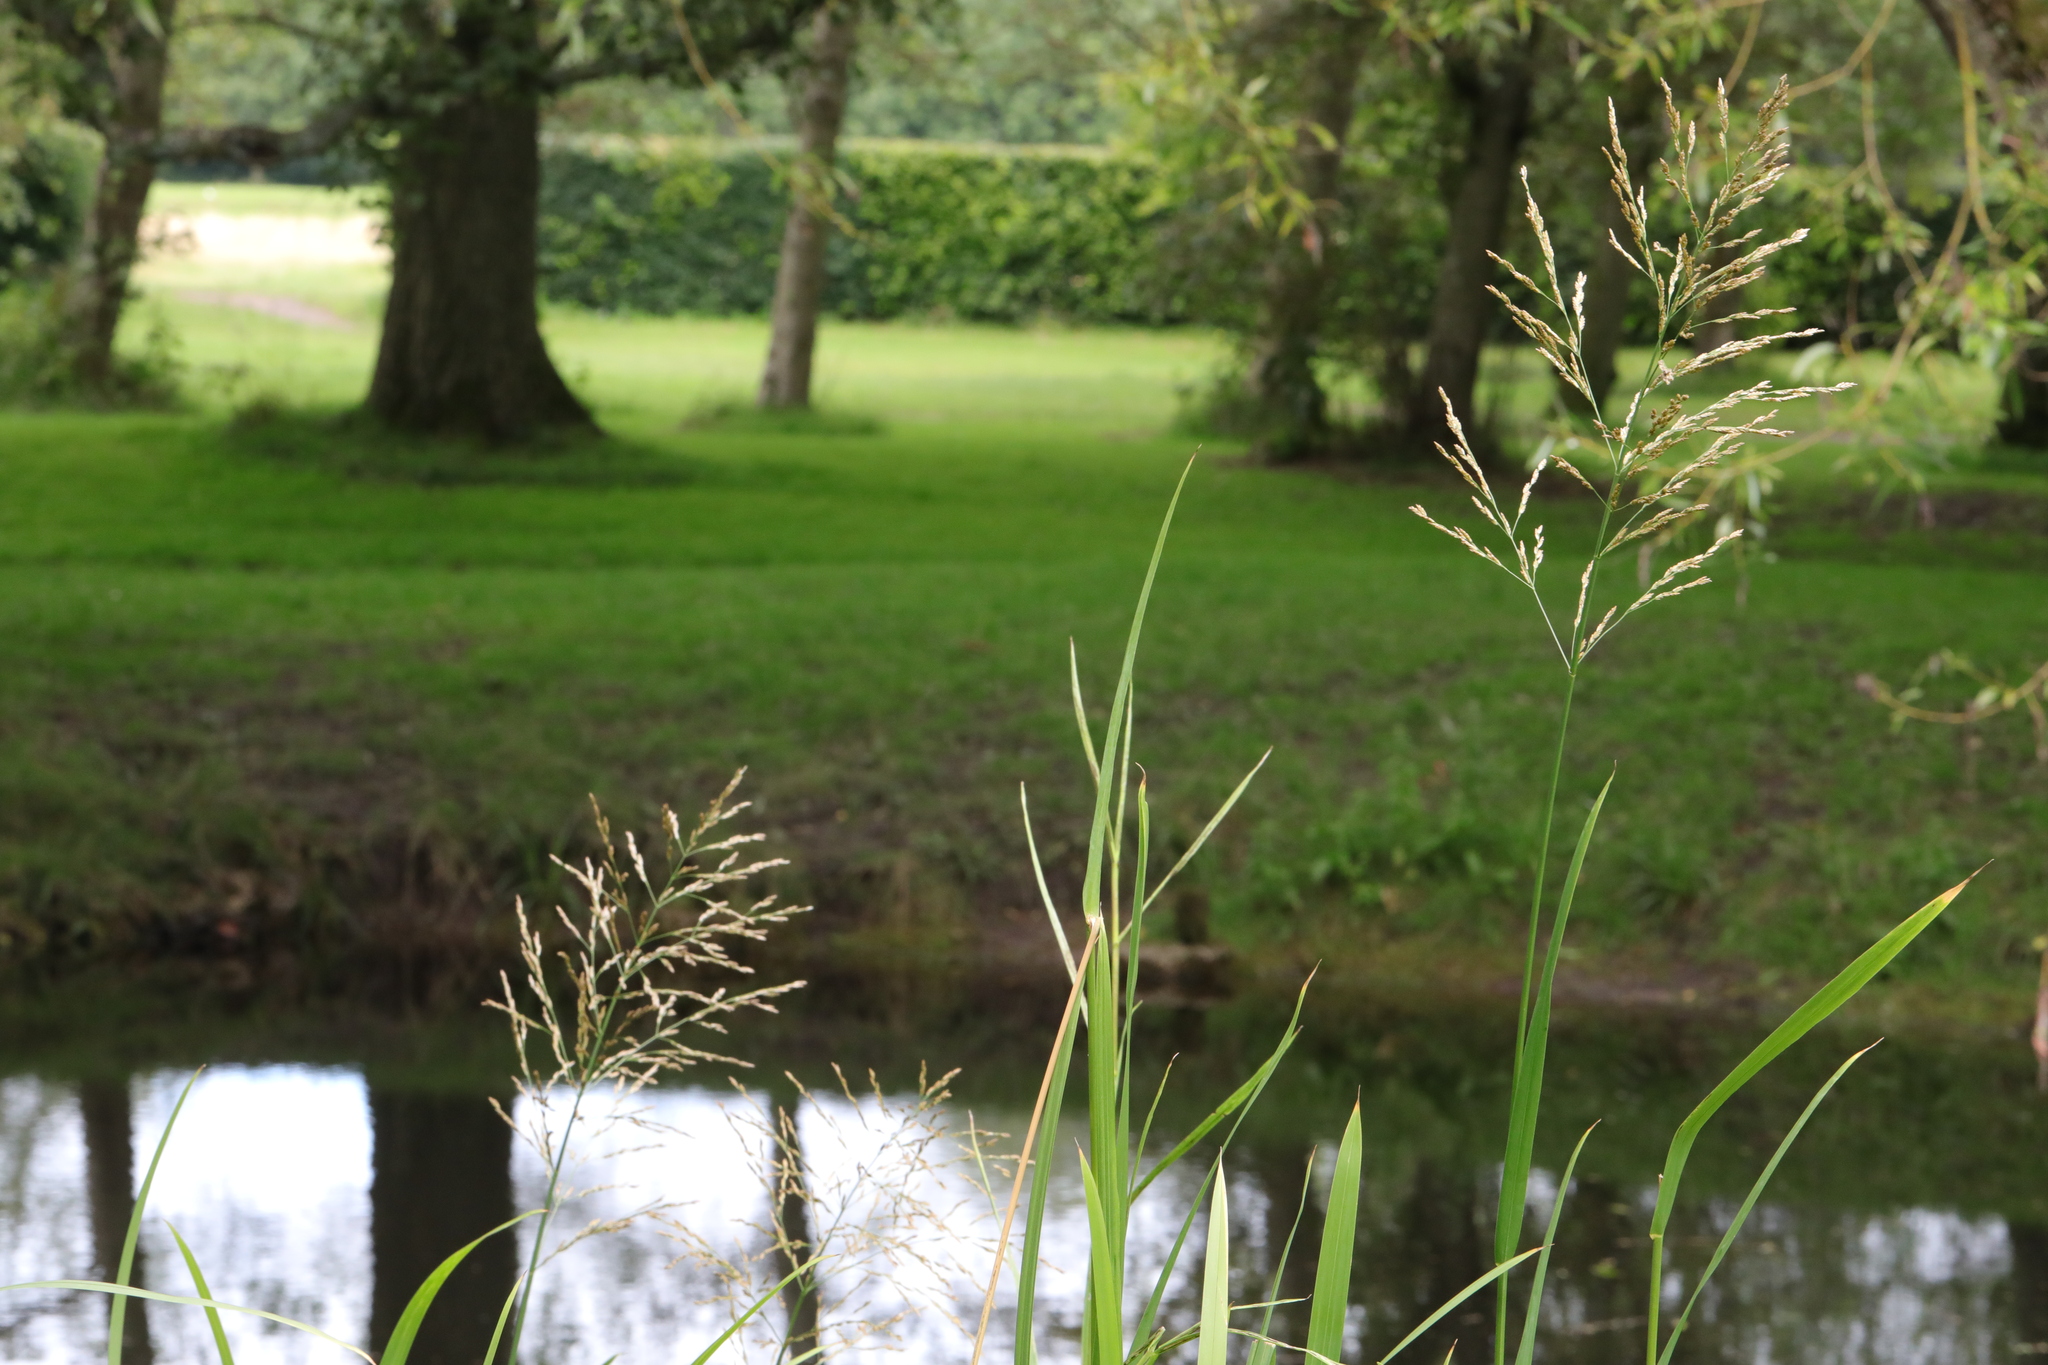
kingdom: Plantae
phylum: Tracheophyta
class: Liliopsida
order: Poales
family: Poaceae
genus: Glyceria
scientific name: Glyceria maxima
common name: Reed mannagrass
